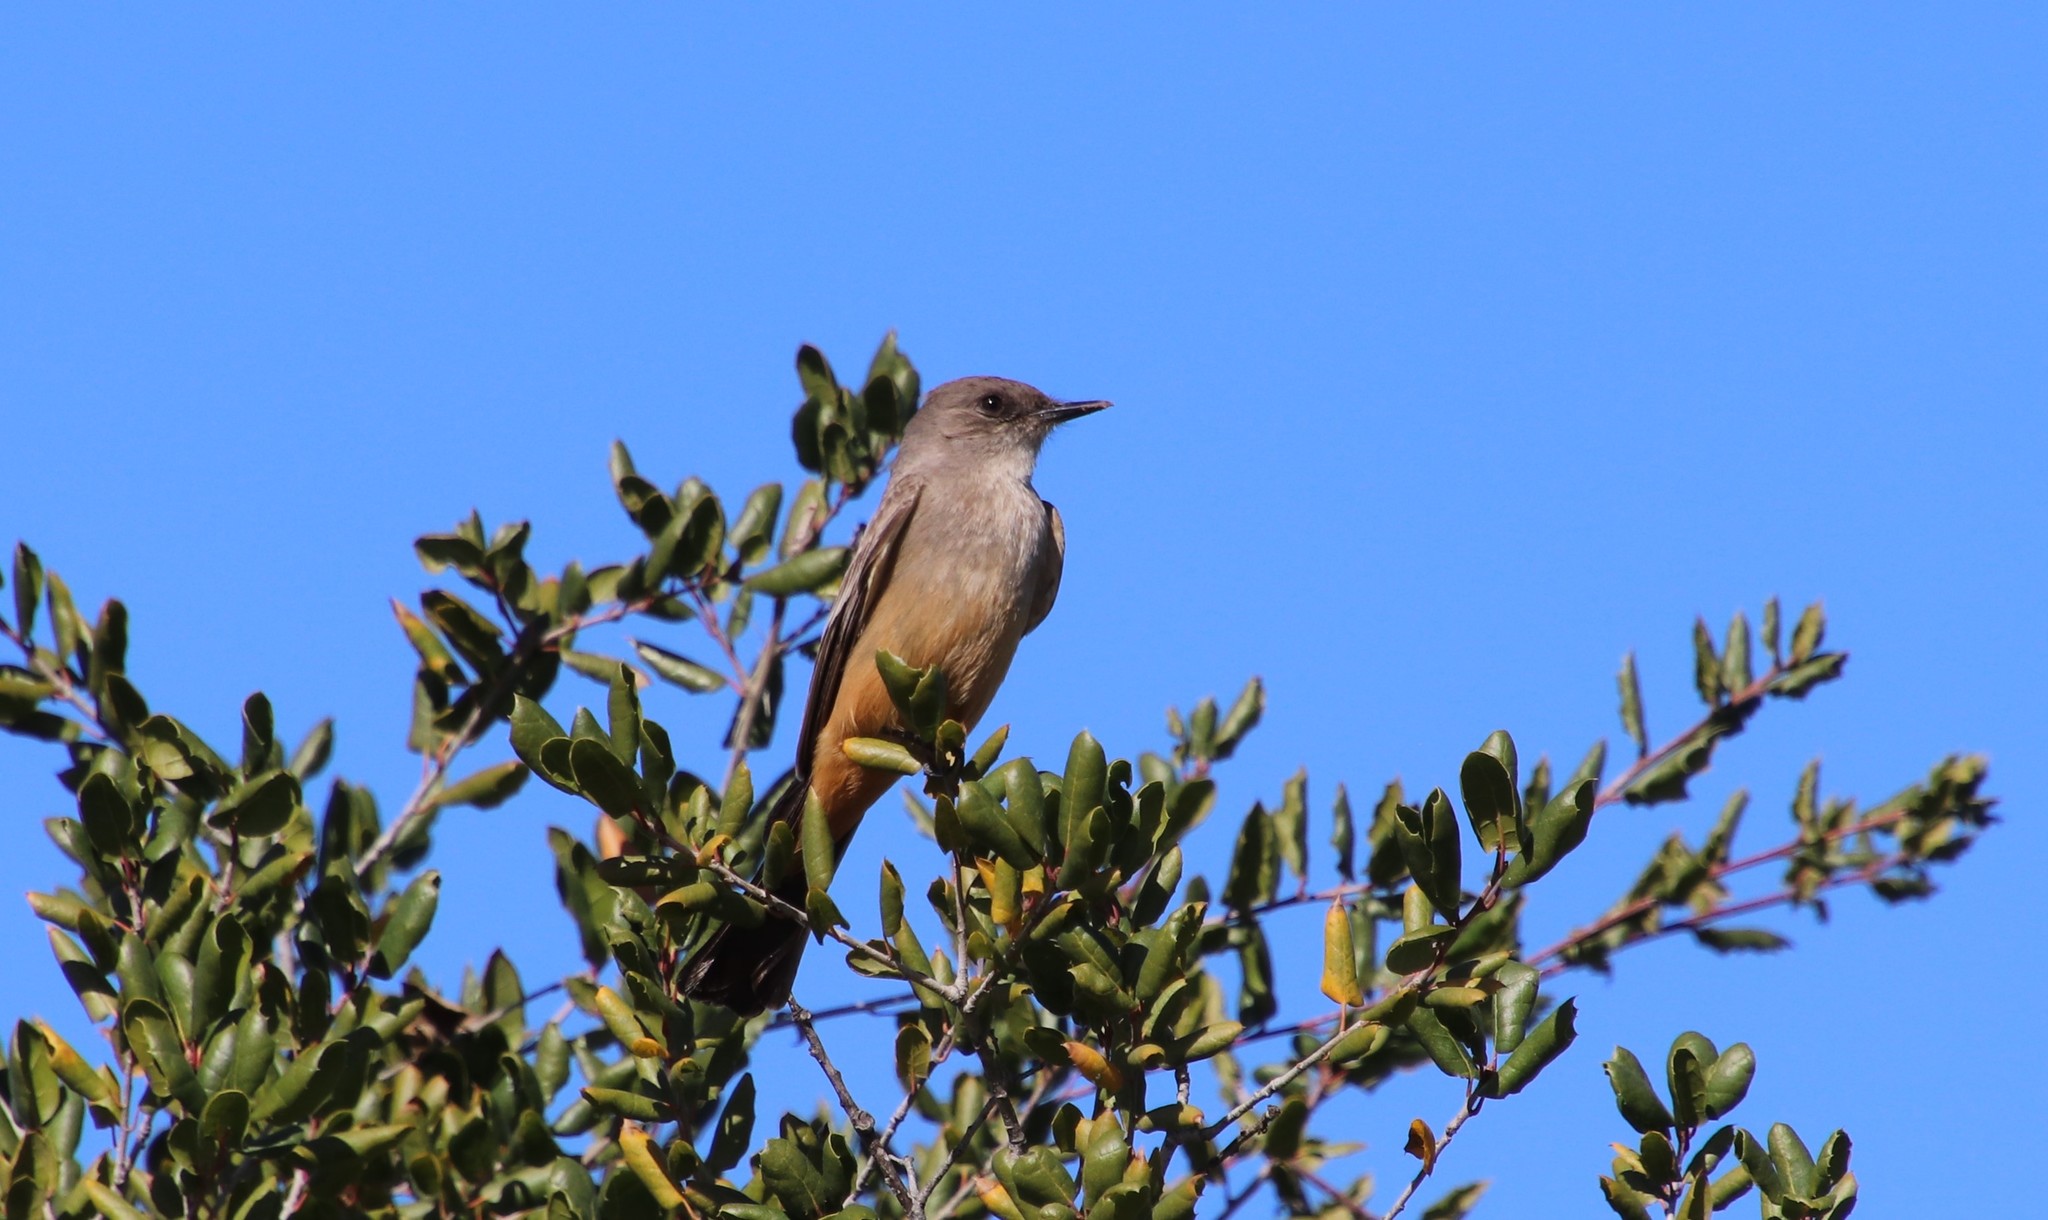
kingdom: Animalia
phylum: Chordata
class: Aves
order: Passeriformes
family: Tyrannidae
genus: Sayornis
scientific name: Sayornis saya
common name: Say's phoebe
